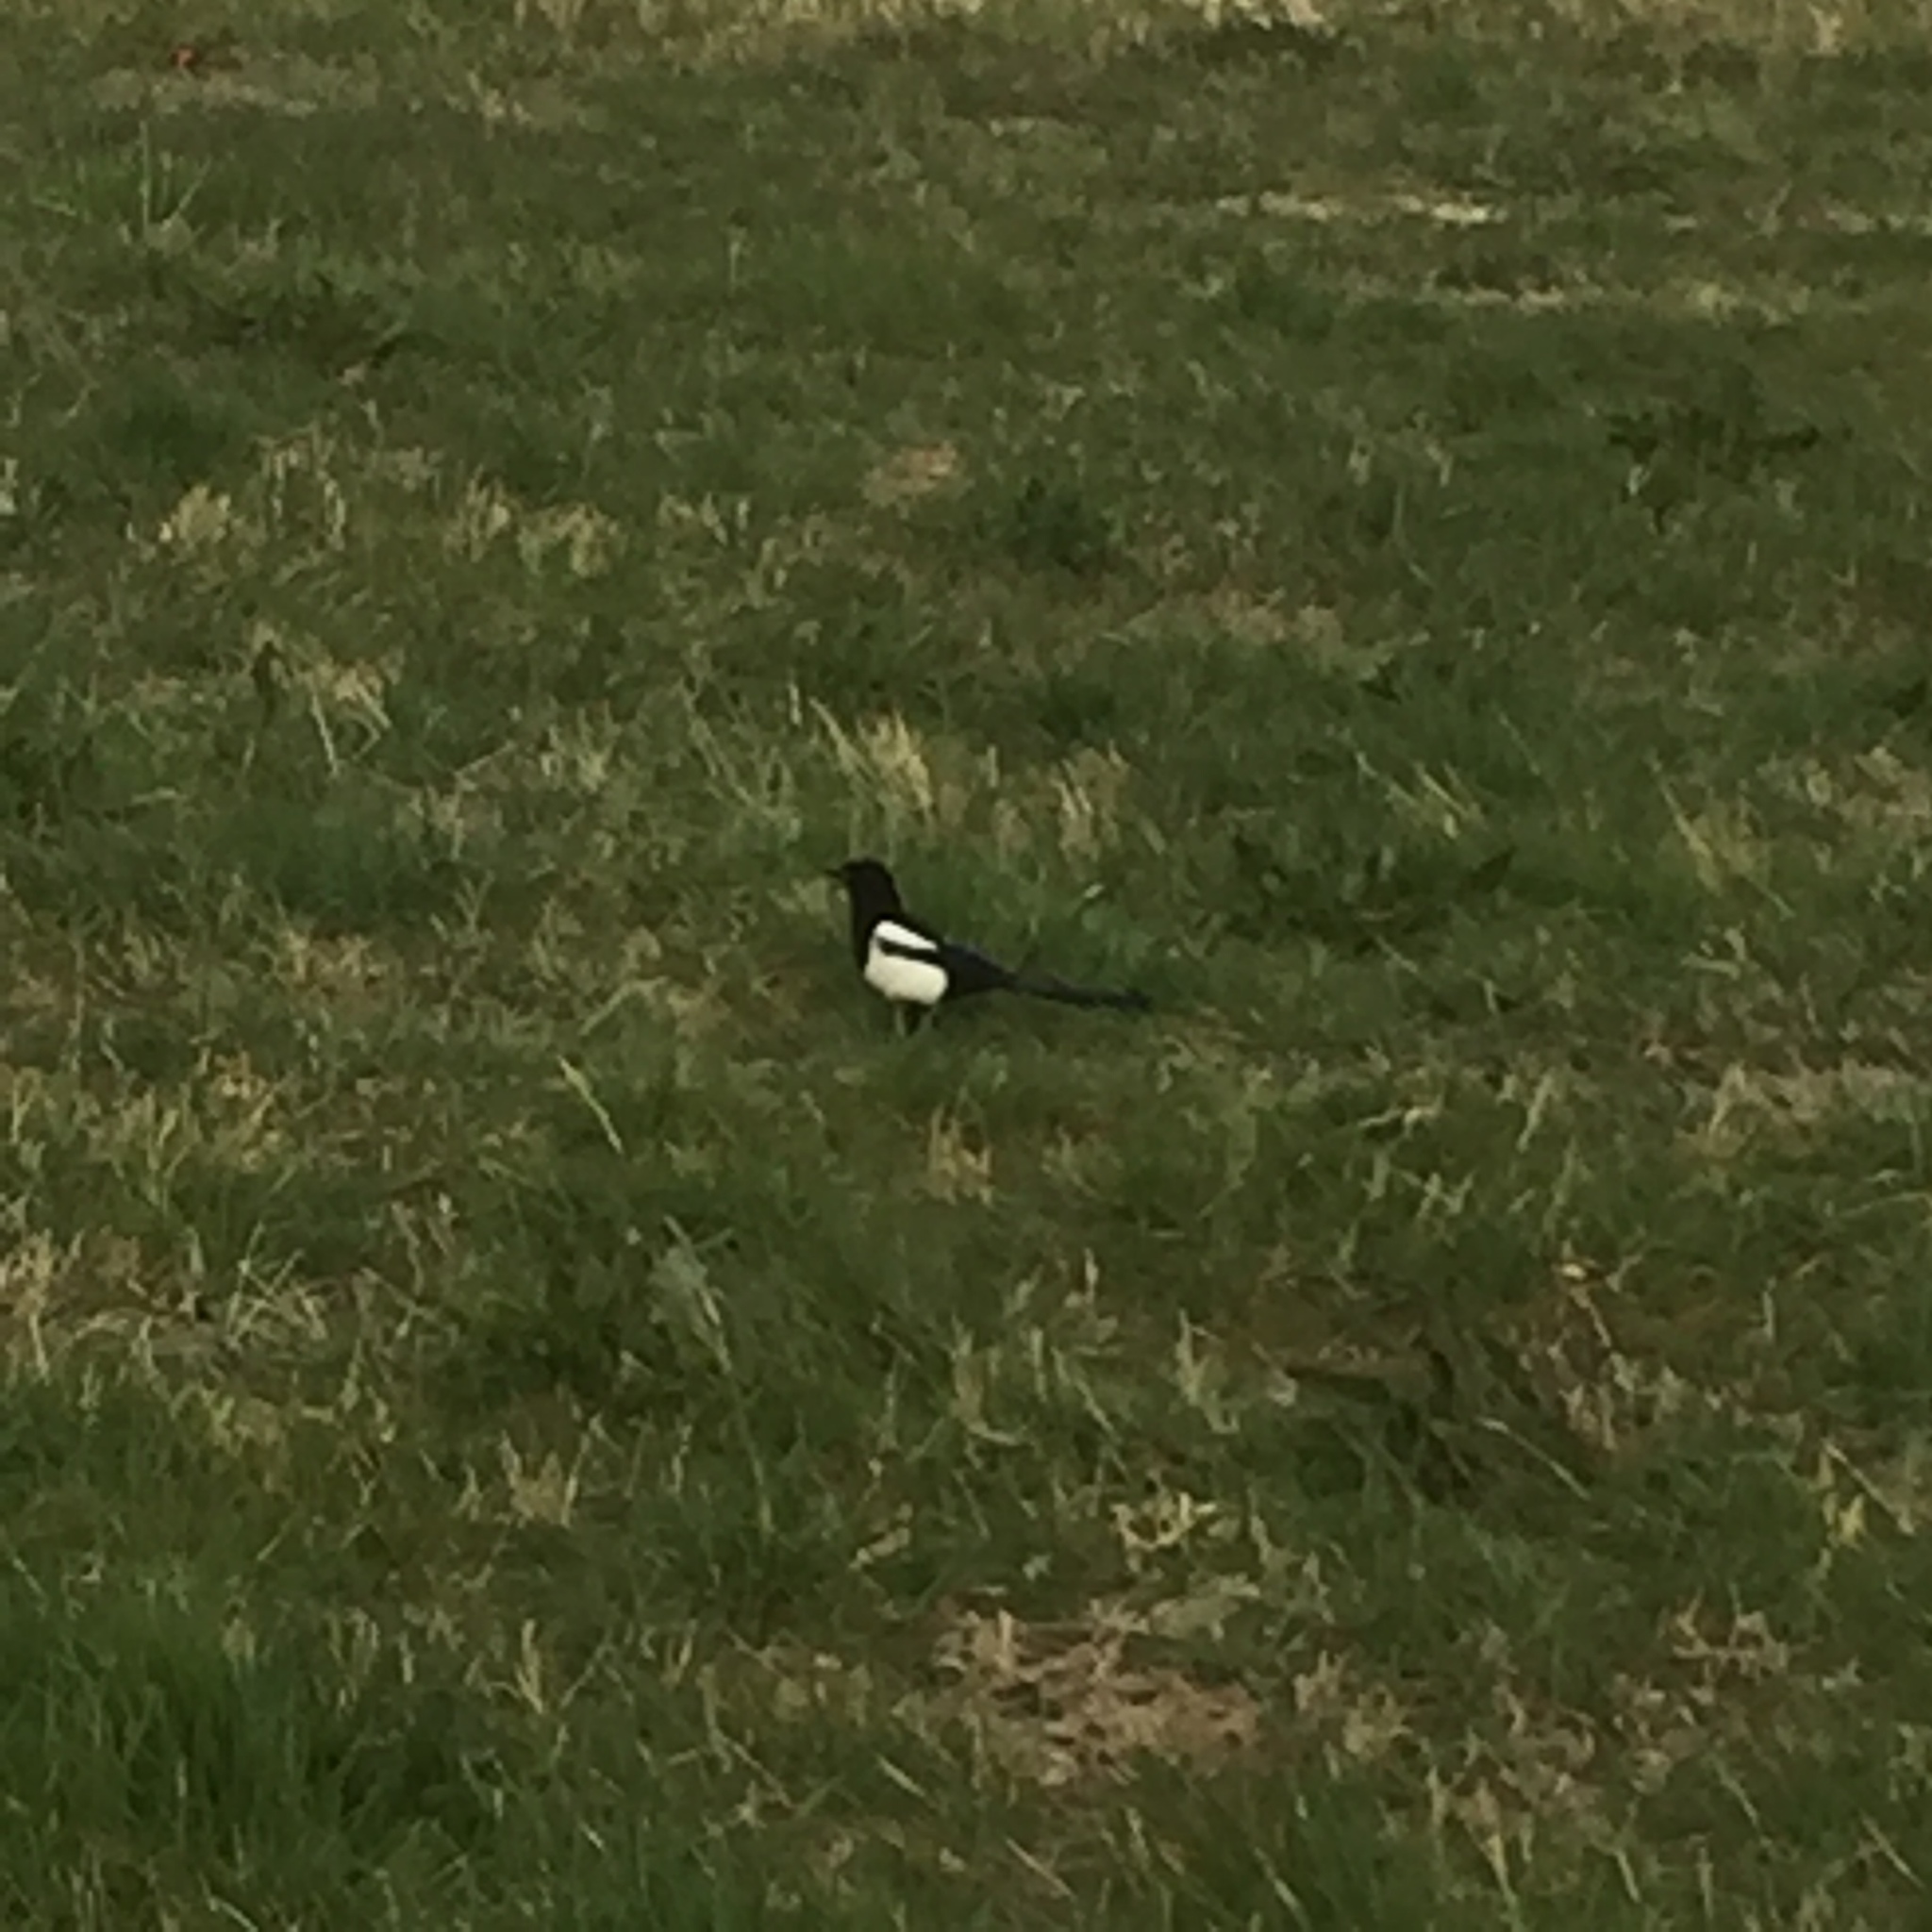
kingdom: Animalia
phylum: Chordata
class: Aves
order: Passeriformes
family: Corvidae
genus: Pica
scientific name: Pica pica
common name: Eurasian magpie
